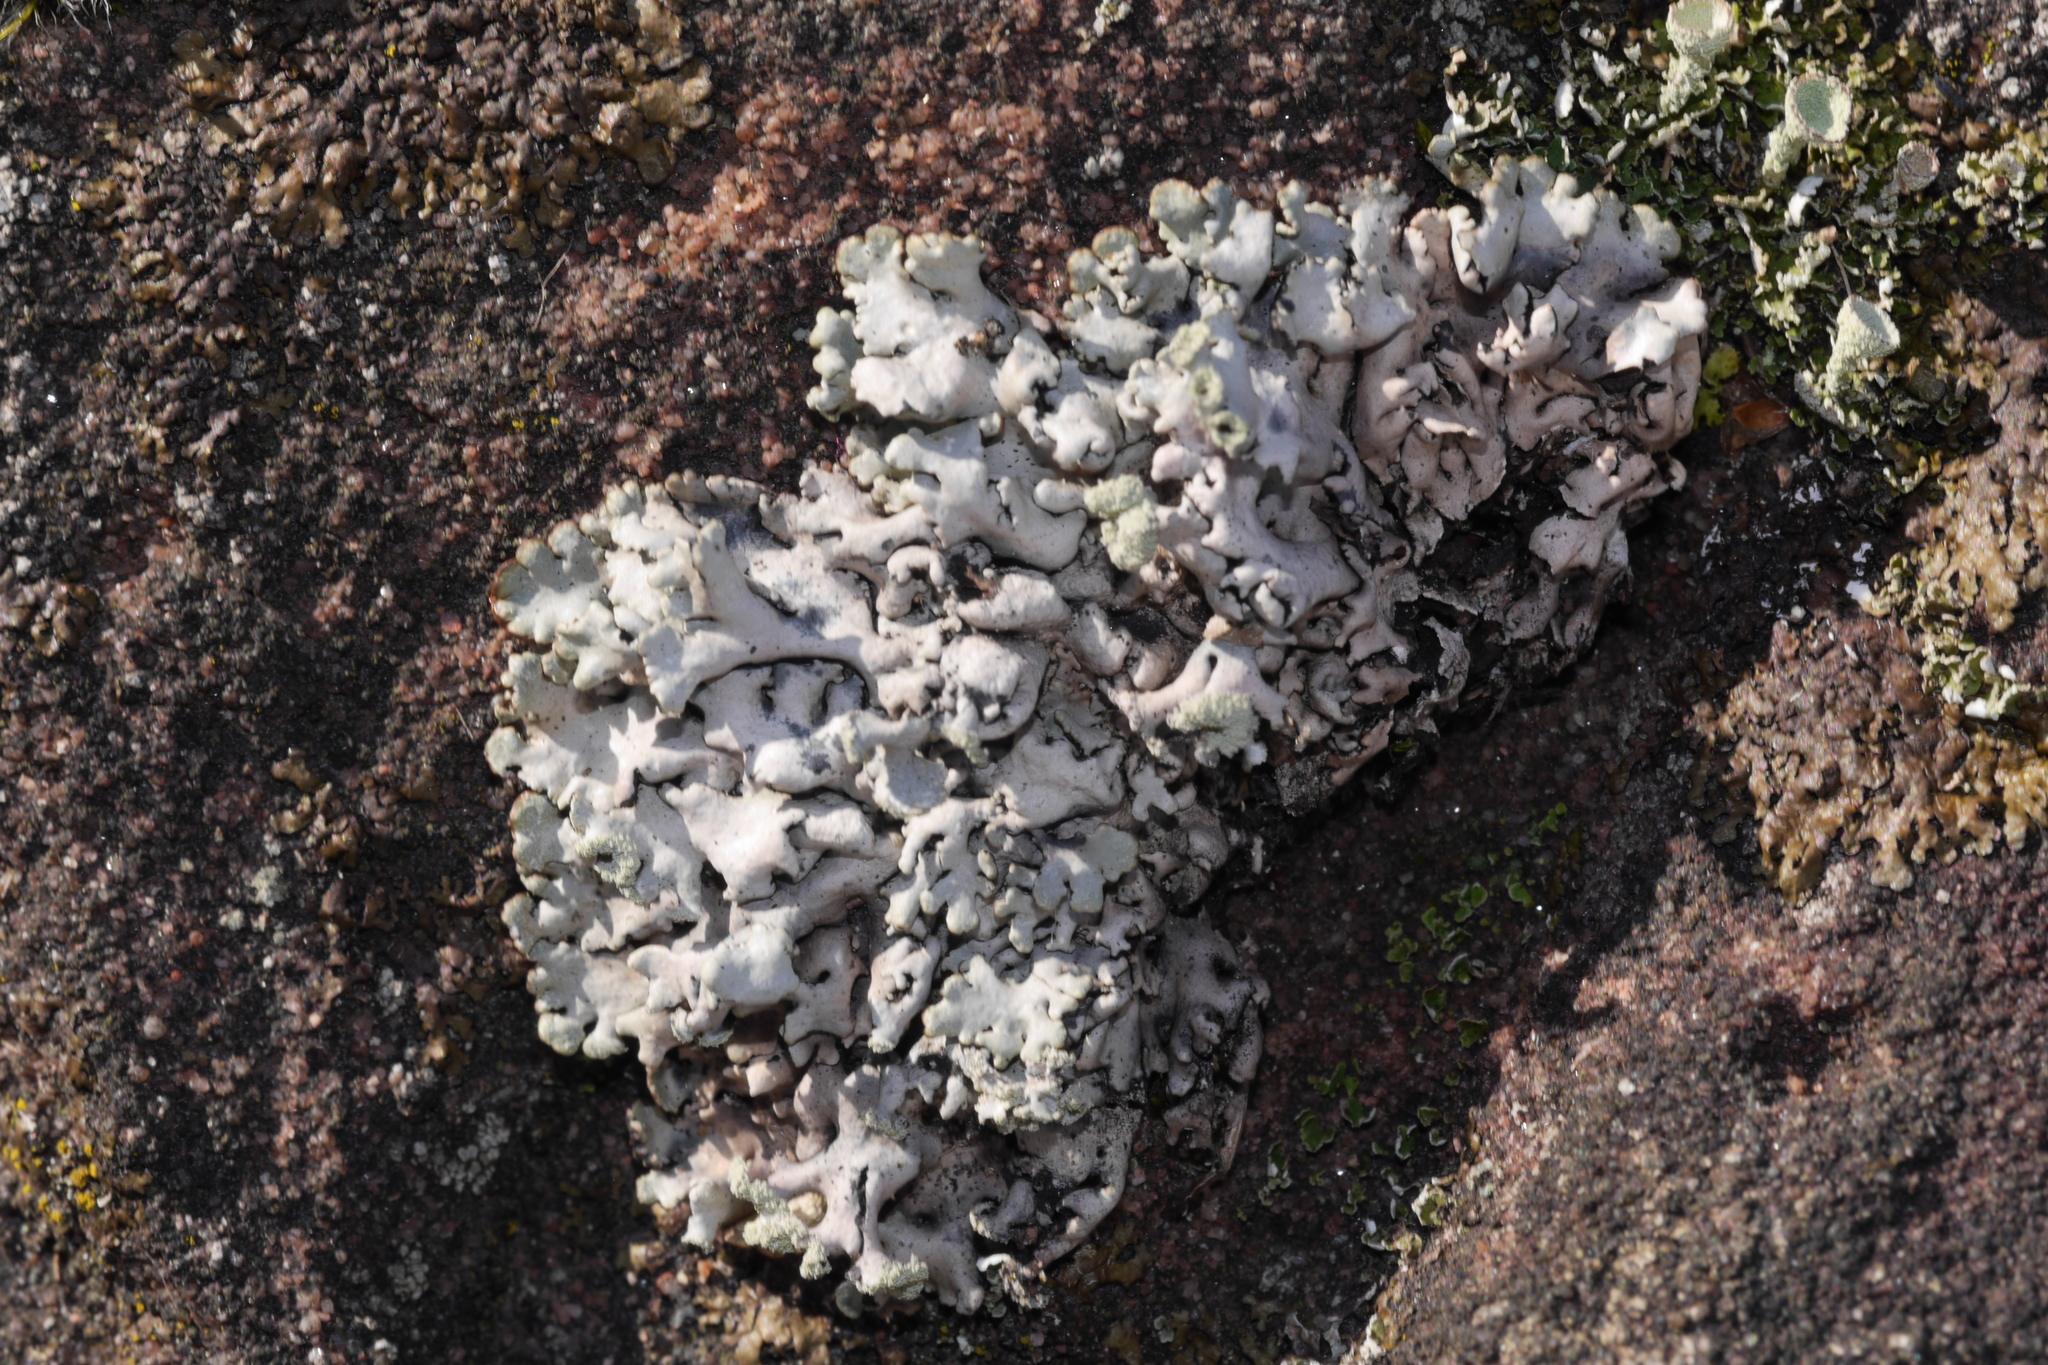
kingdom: Fungi
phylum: Ascomycota
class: Lecanoromycetes
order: Lecanorales
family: Parmeliaceae
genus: Hypogymnia
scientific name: Hypogymnia physodes
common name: Dark crottle
